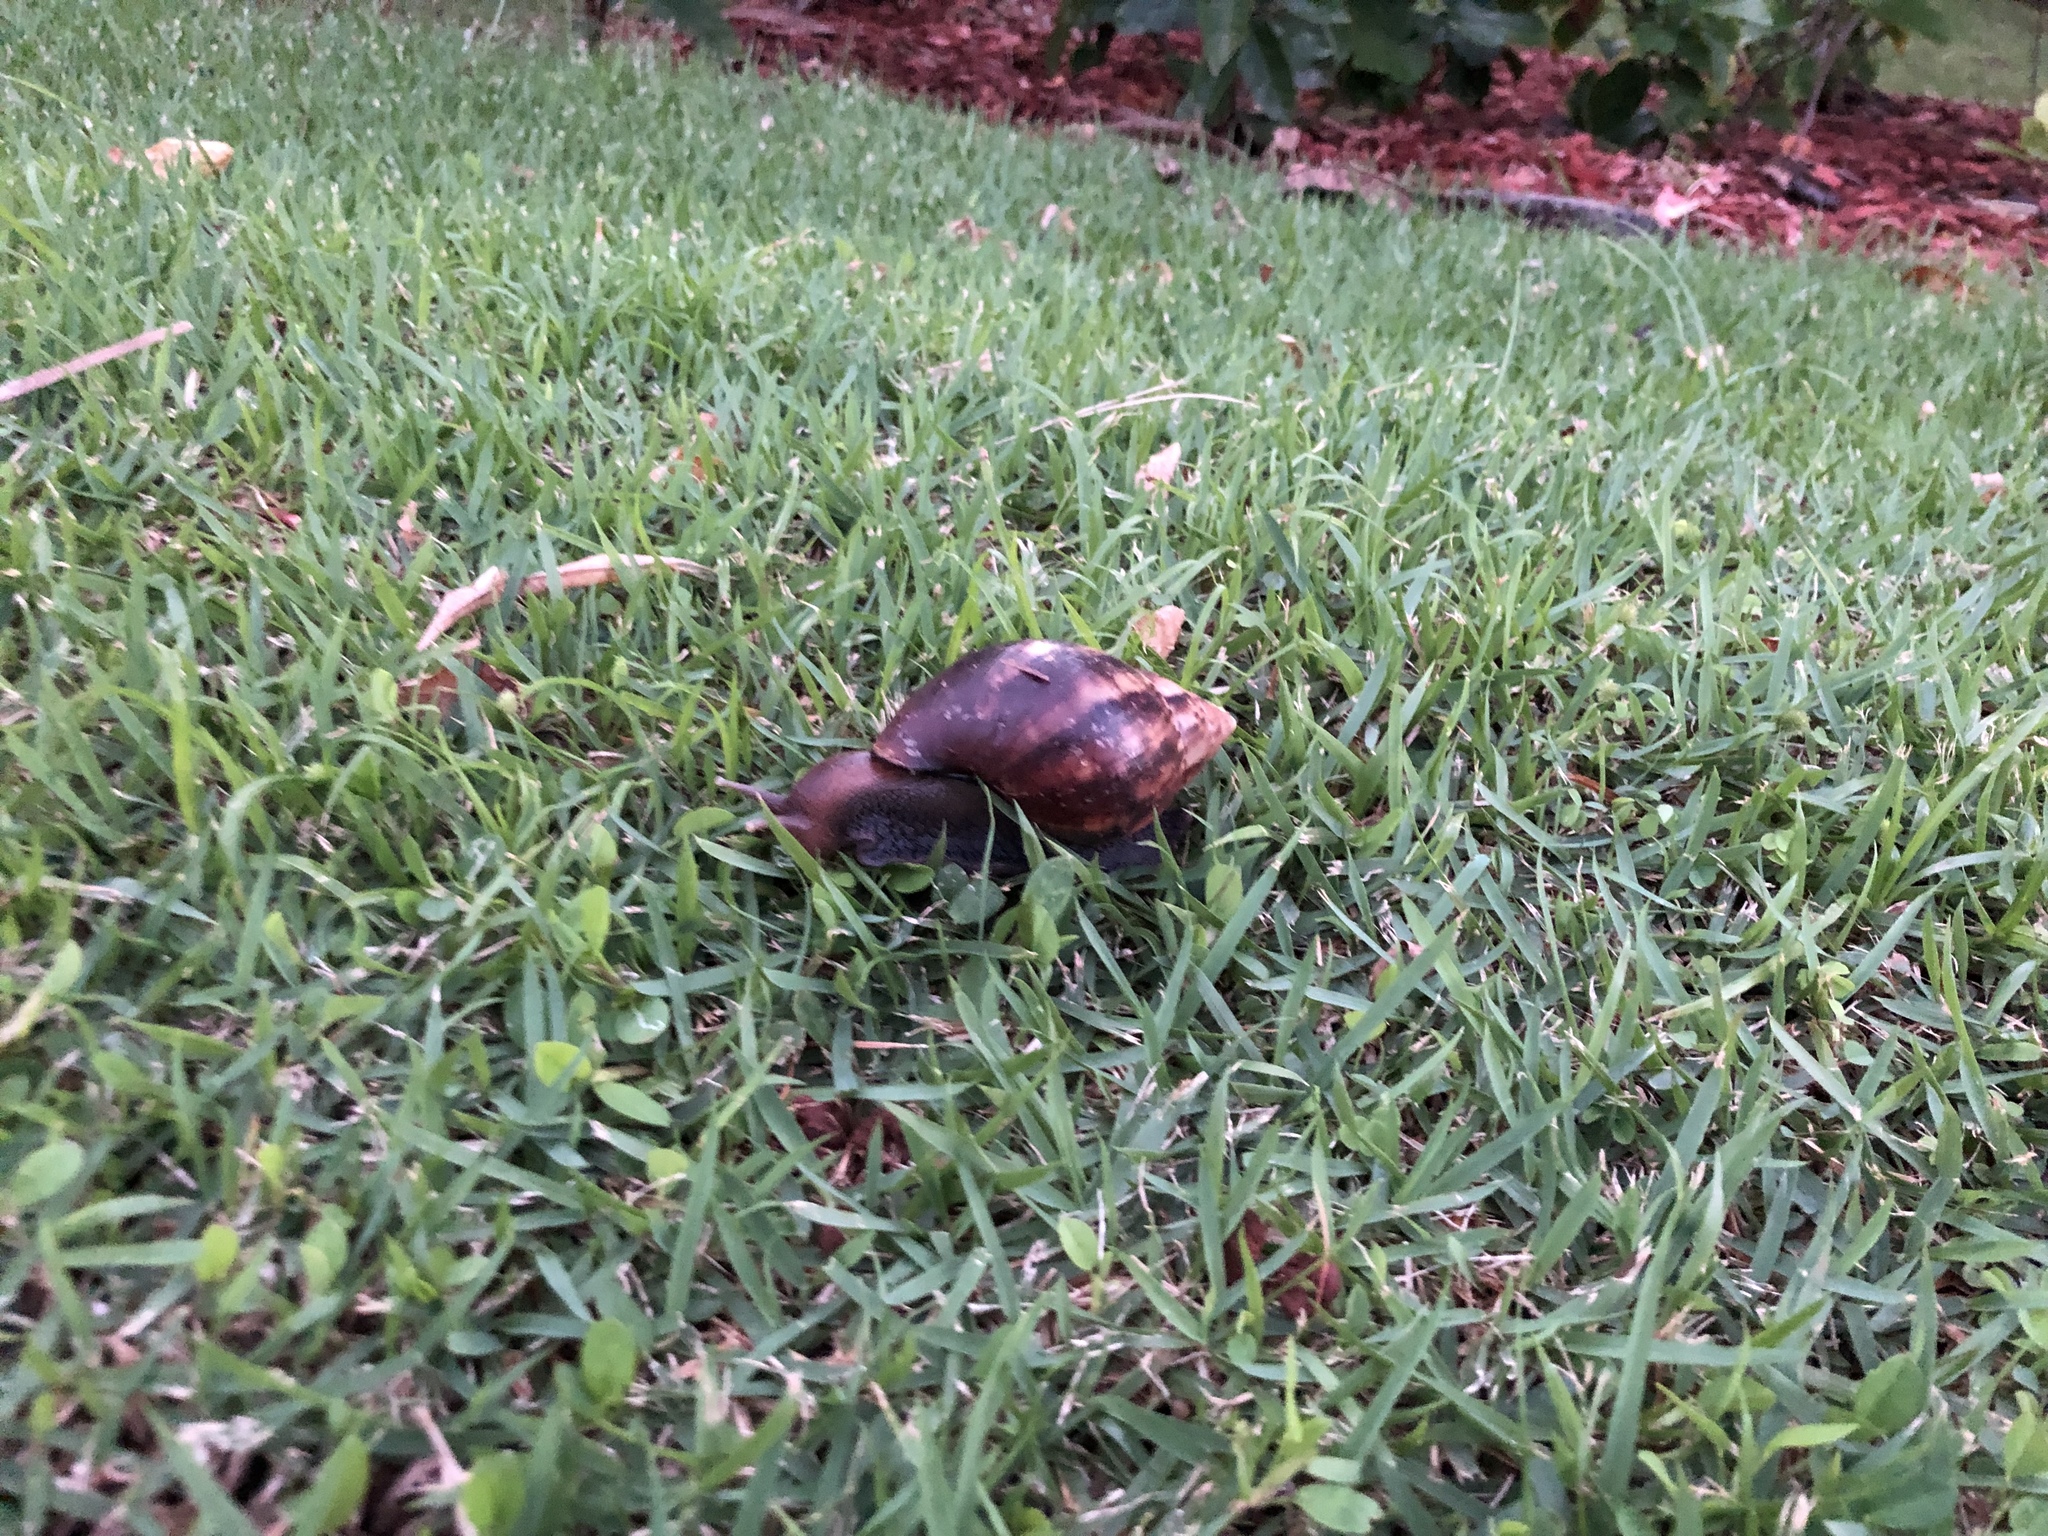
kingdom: Animalia
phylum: Mollusca
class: Gastropoda
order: Stylommatophora
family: Achatinidae
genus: Lissachatina
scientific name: Lissachatina fulica
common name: Giant african snail
